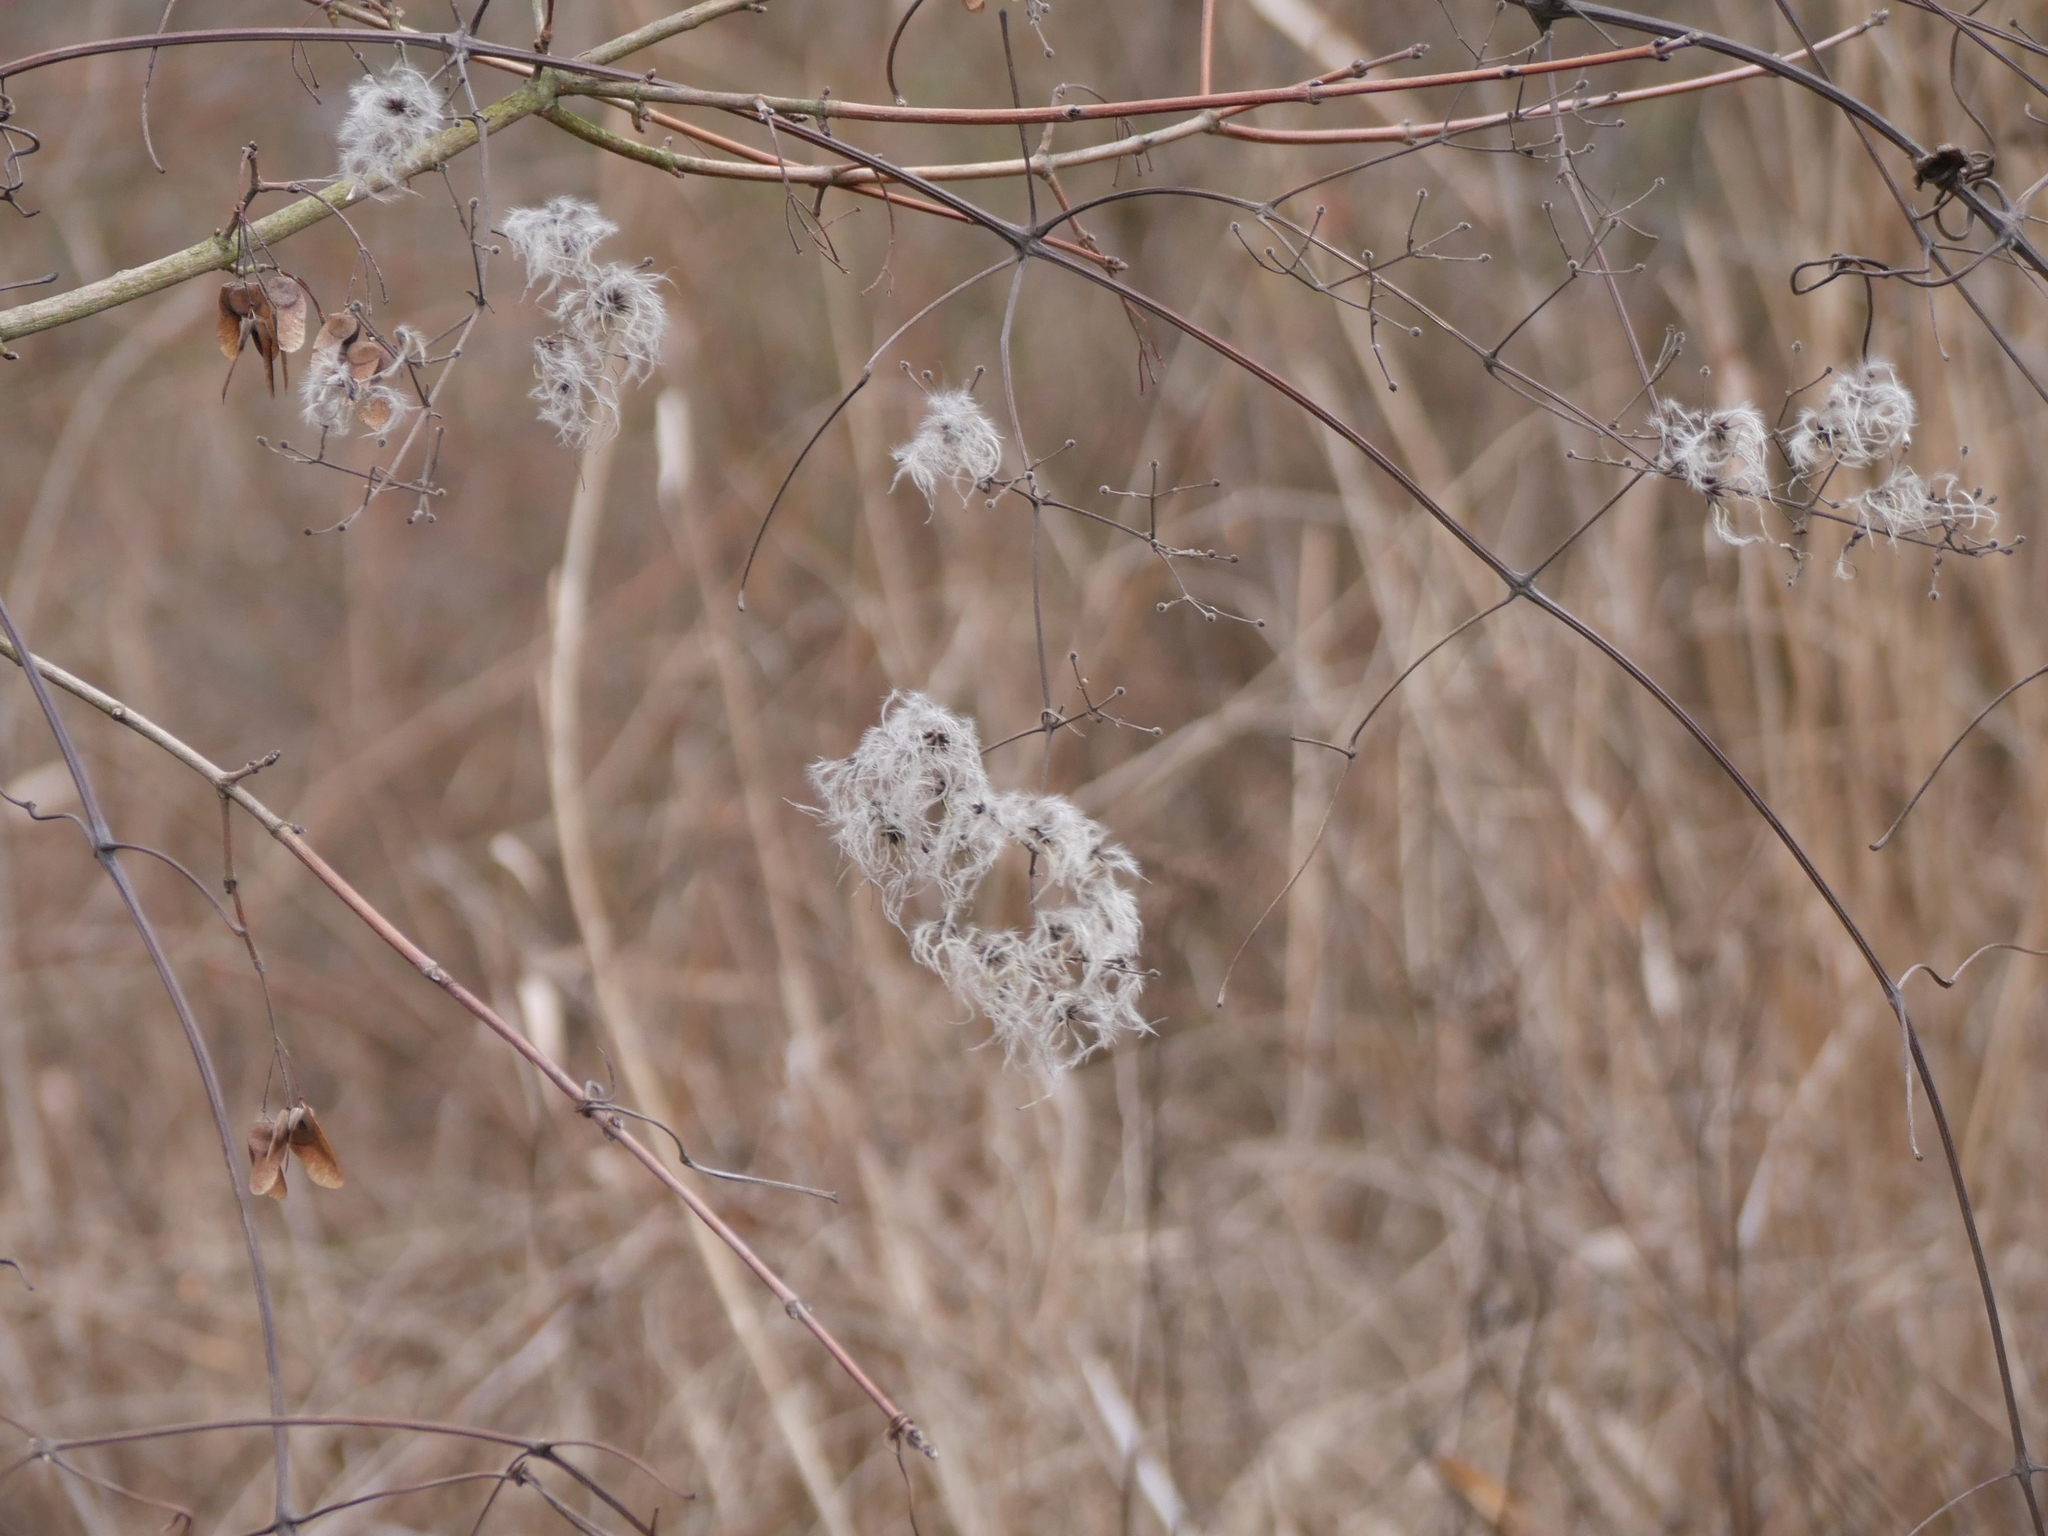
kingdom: Plantae
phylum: Tracheophyta
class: Magnoliopsida
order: Ranunculales
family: Ranunculaceae
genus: Clematis
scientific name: Clematis vitalba
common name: Evergreen clematis
